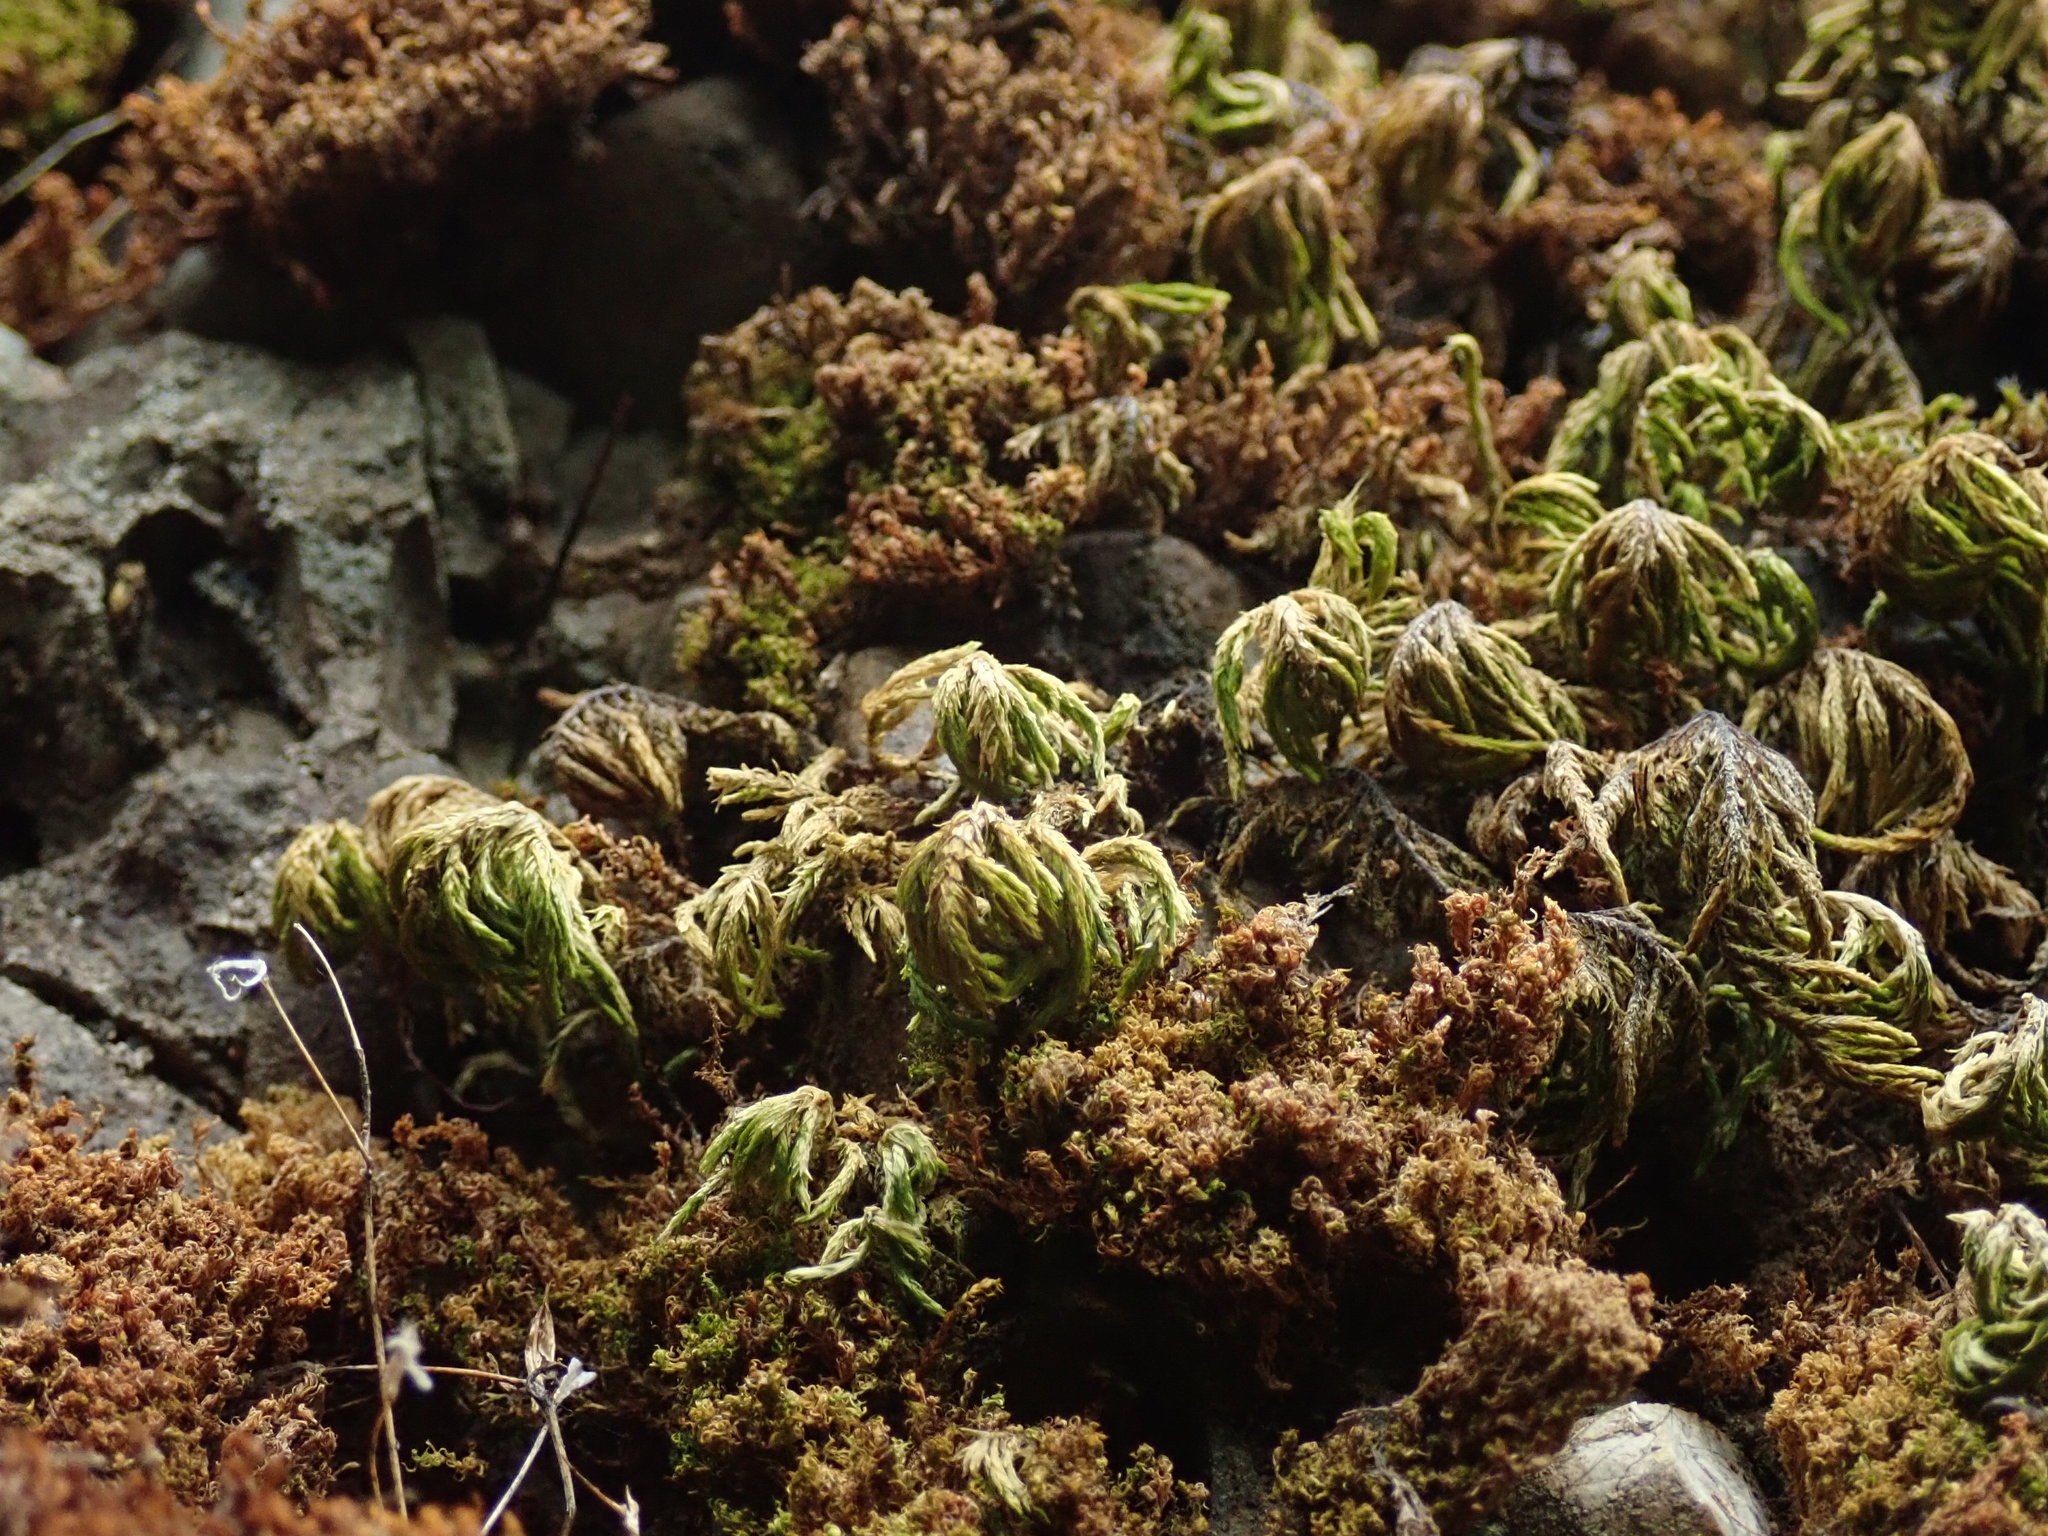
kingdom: Plantae
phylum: Bryophyta
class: Bryopsida
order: Hypnales
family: Cryphaeaceae
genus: Dendroalsia
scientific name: Dendroalsia abietina
